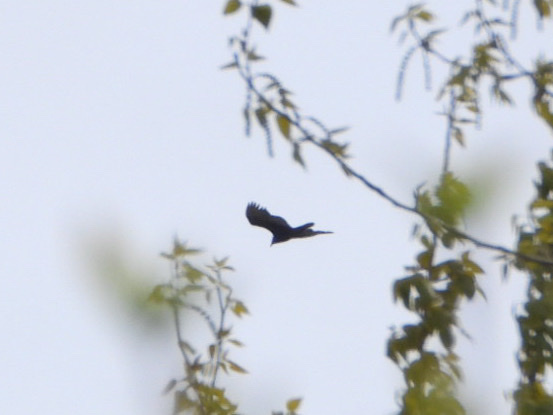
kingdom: Animalia
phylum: Chordata
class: Aves
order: Accipitriformes
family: Cathartidae
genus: Cathartes
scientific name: Cathartes aura
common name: Turkey vulture
